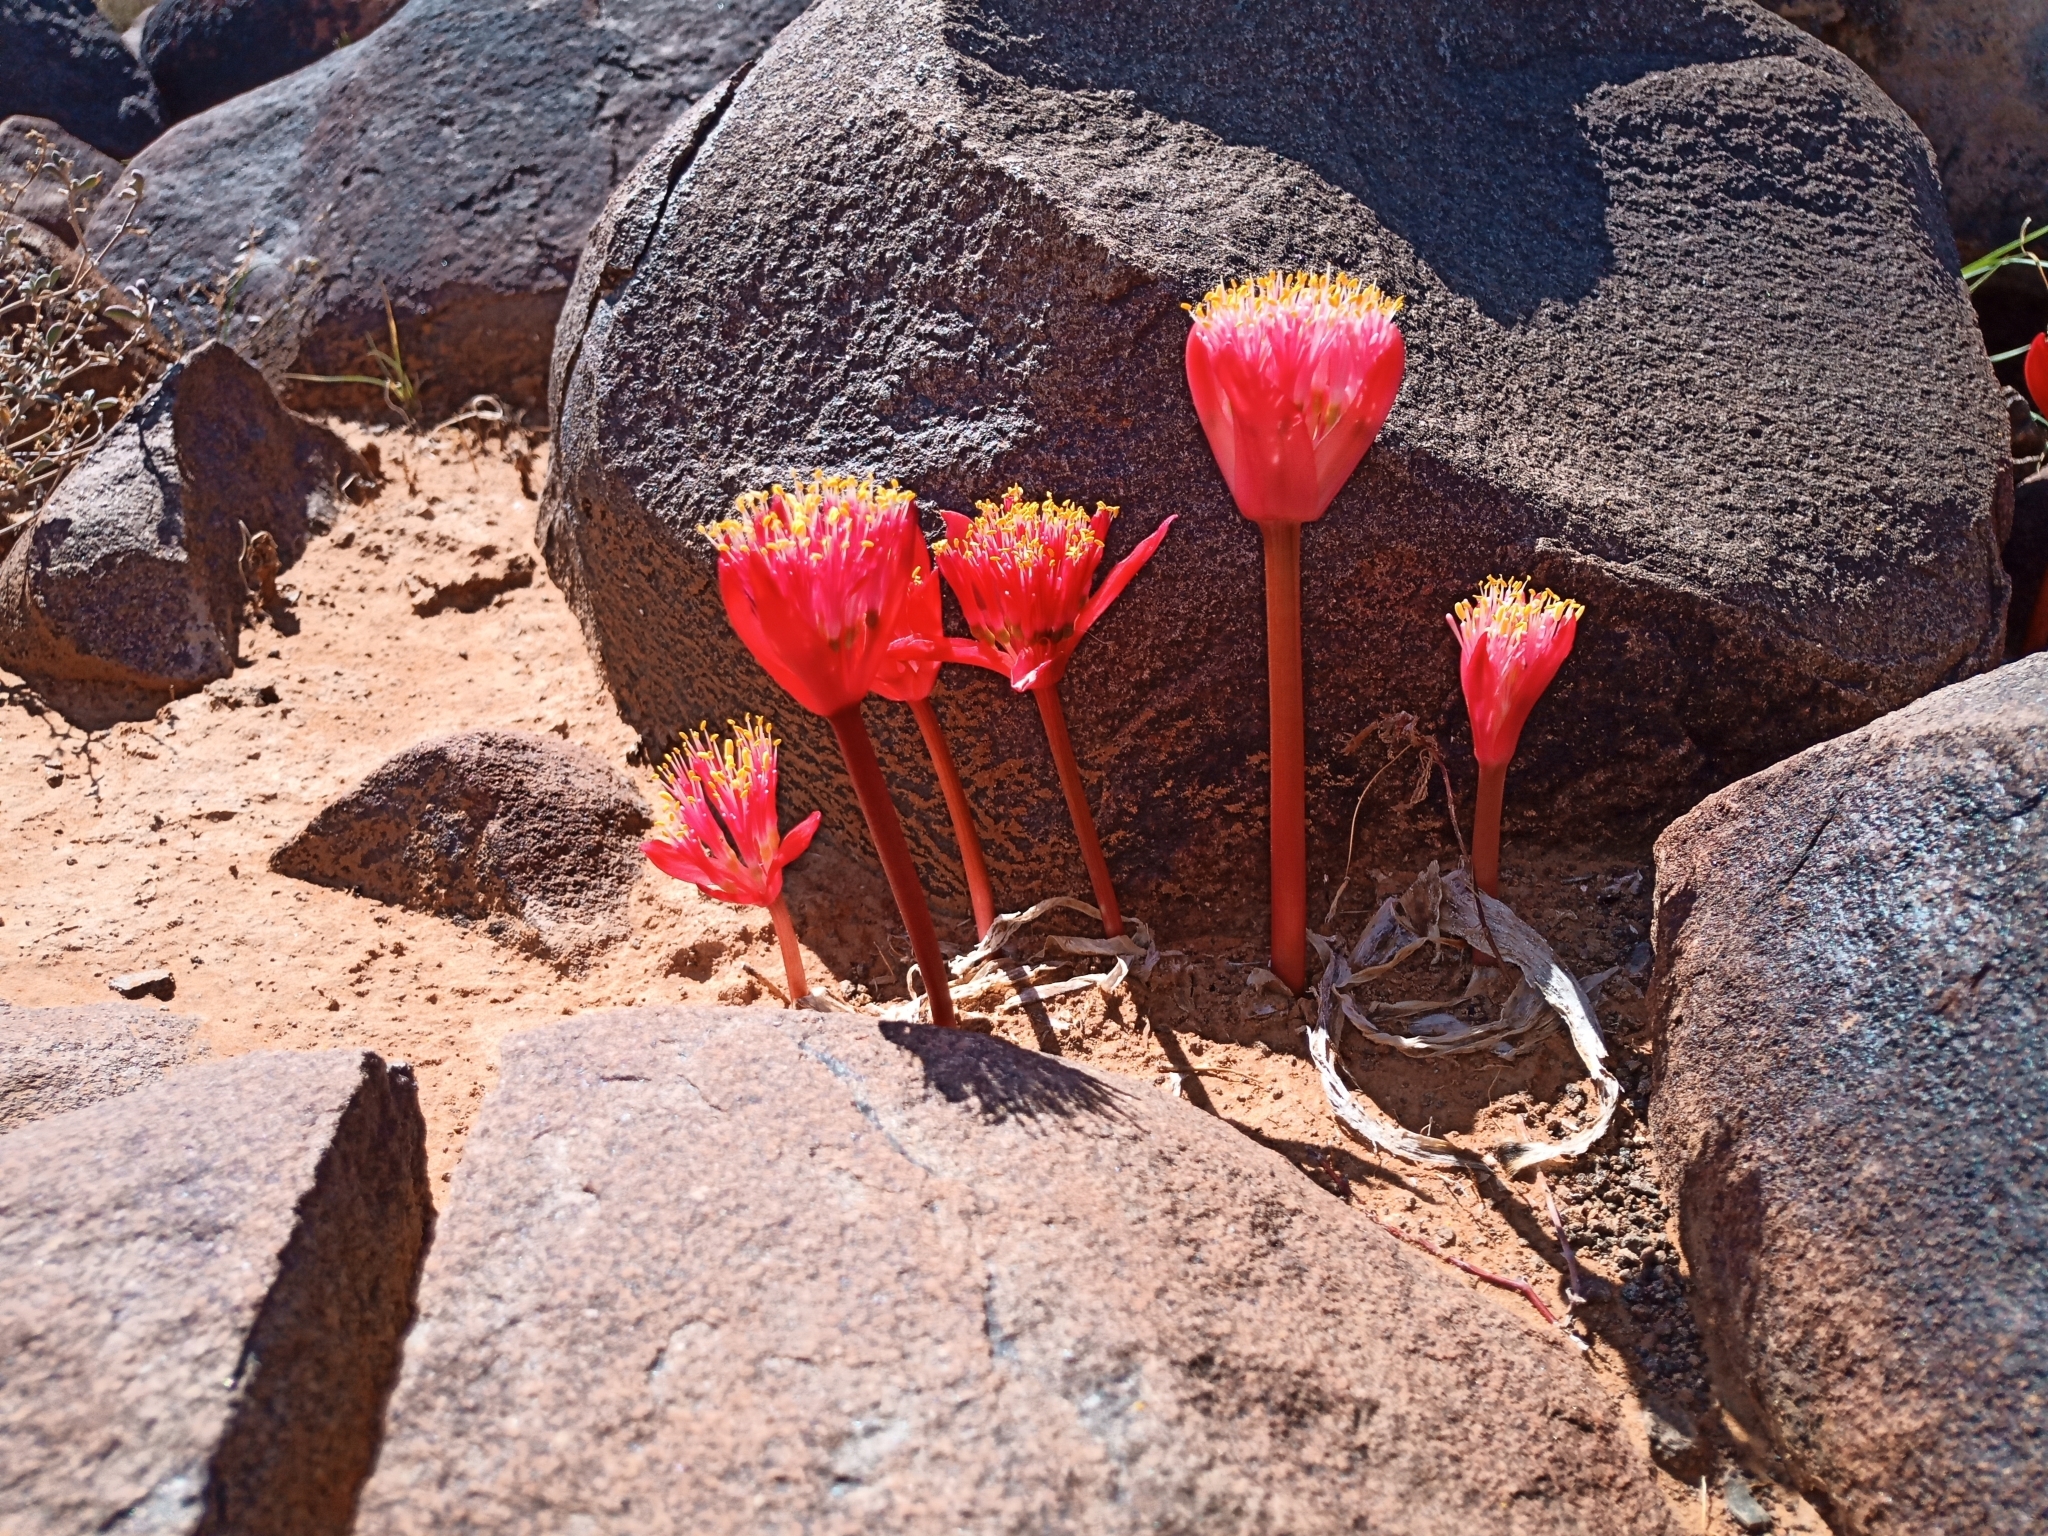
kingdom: Plantae
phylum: Tracheophyta
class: Liliopsida
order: Asparagales
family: Amaryllidaceae
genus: Haemanthus
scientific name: Haemanthus barkerae
